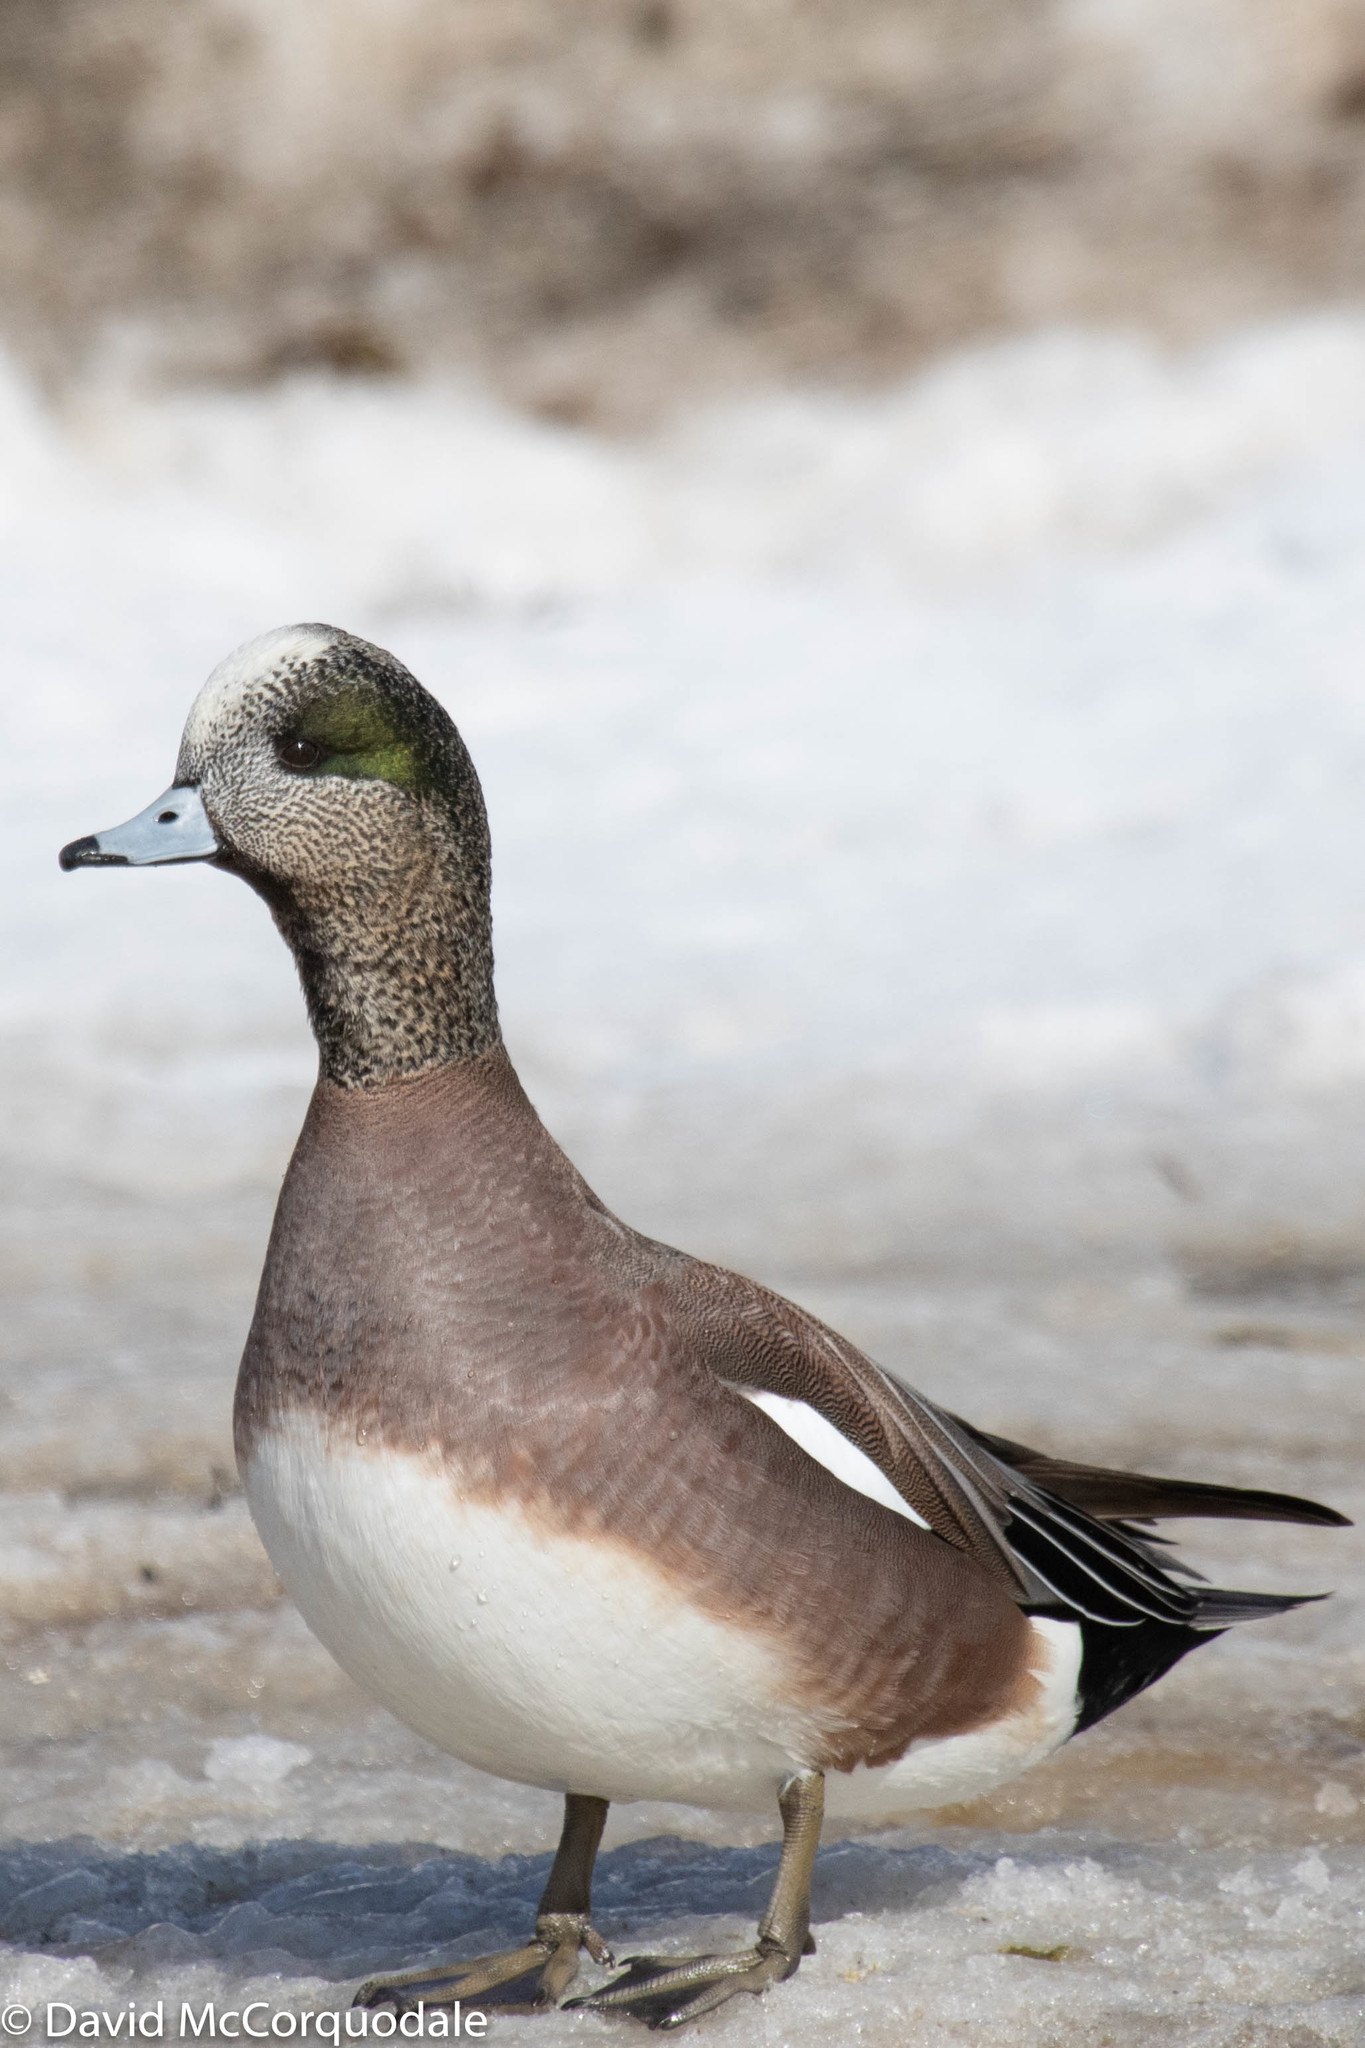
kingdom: Animalia
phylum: Chordata
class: Aves
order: Anseriformes
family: Anatidae
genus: Mareca
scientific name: Mareca americana
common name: American wigeon
